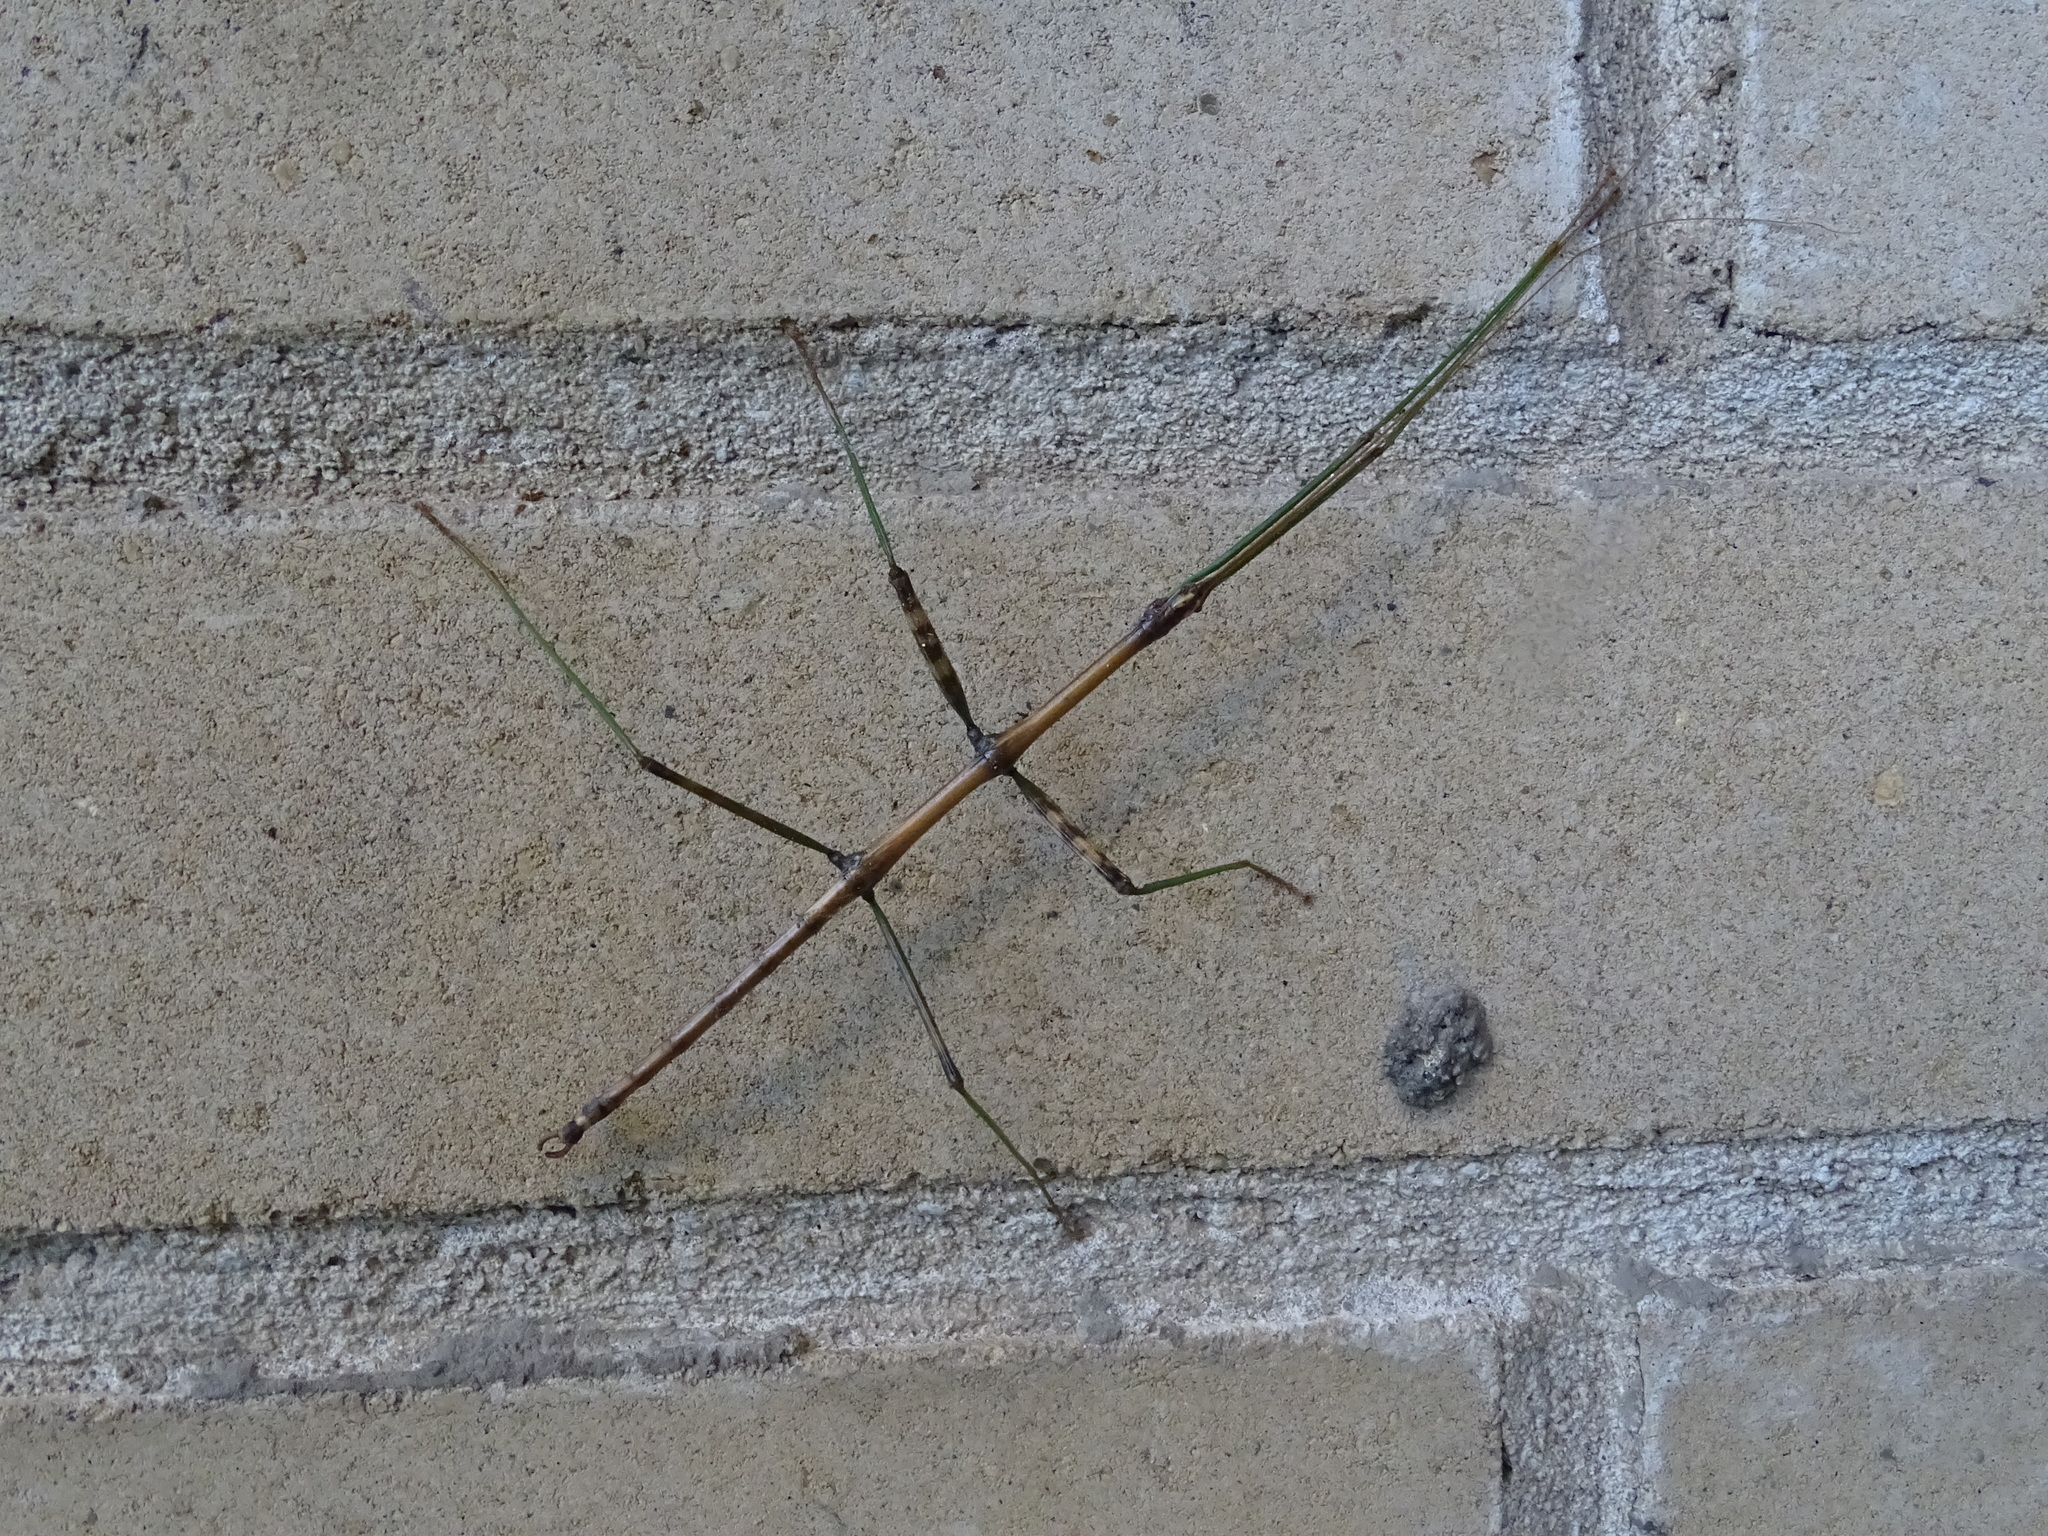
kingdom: Animalia
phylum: Arthropoda
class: Insecta
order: Phasmida
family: Diapheromeridae
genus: Diapheromera
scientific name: Diapheromera femorata
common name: Common american walkingstick
